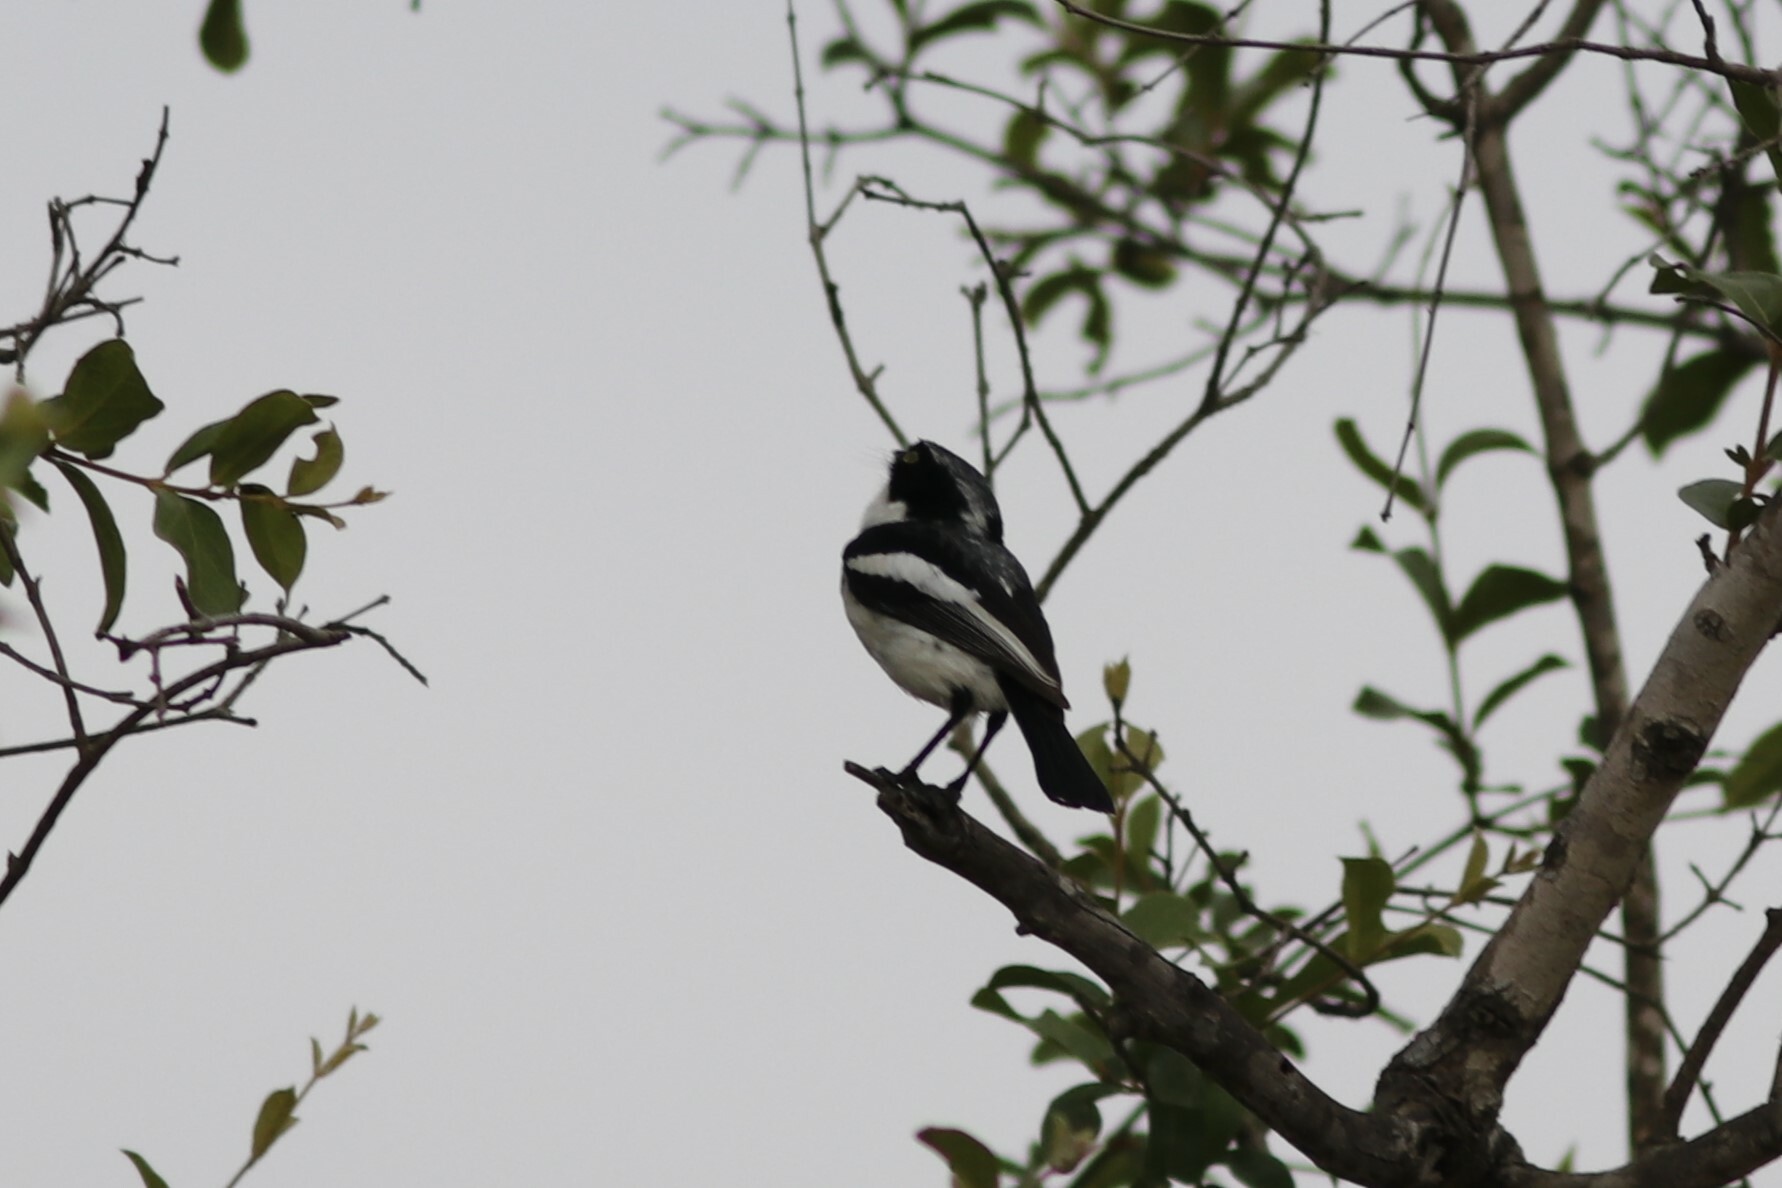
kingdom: Animalia
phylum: Chordata
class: Aves
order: Passeriformes
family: Platysteiridae
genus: Batis
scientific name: Batis molitor
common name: Chinspot batis
